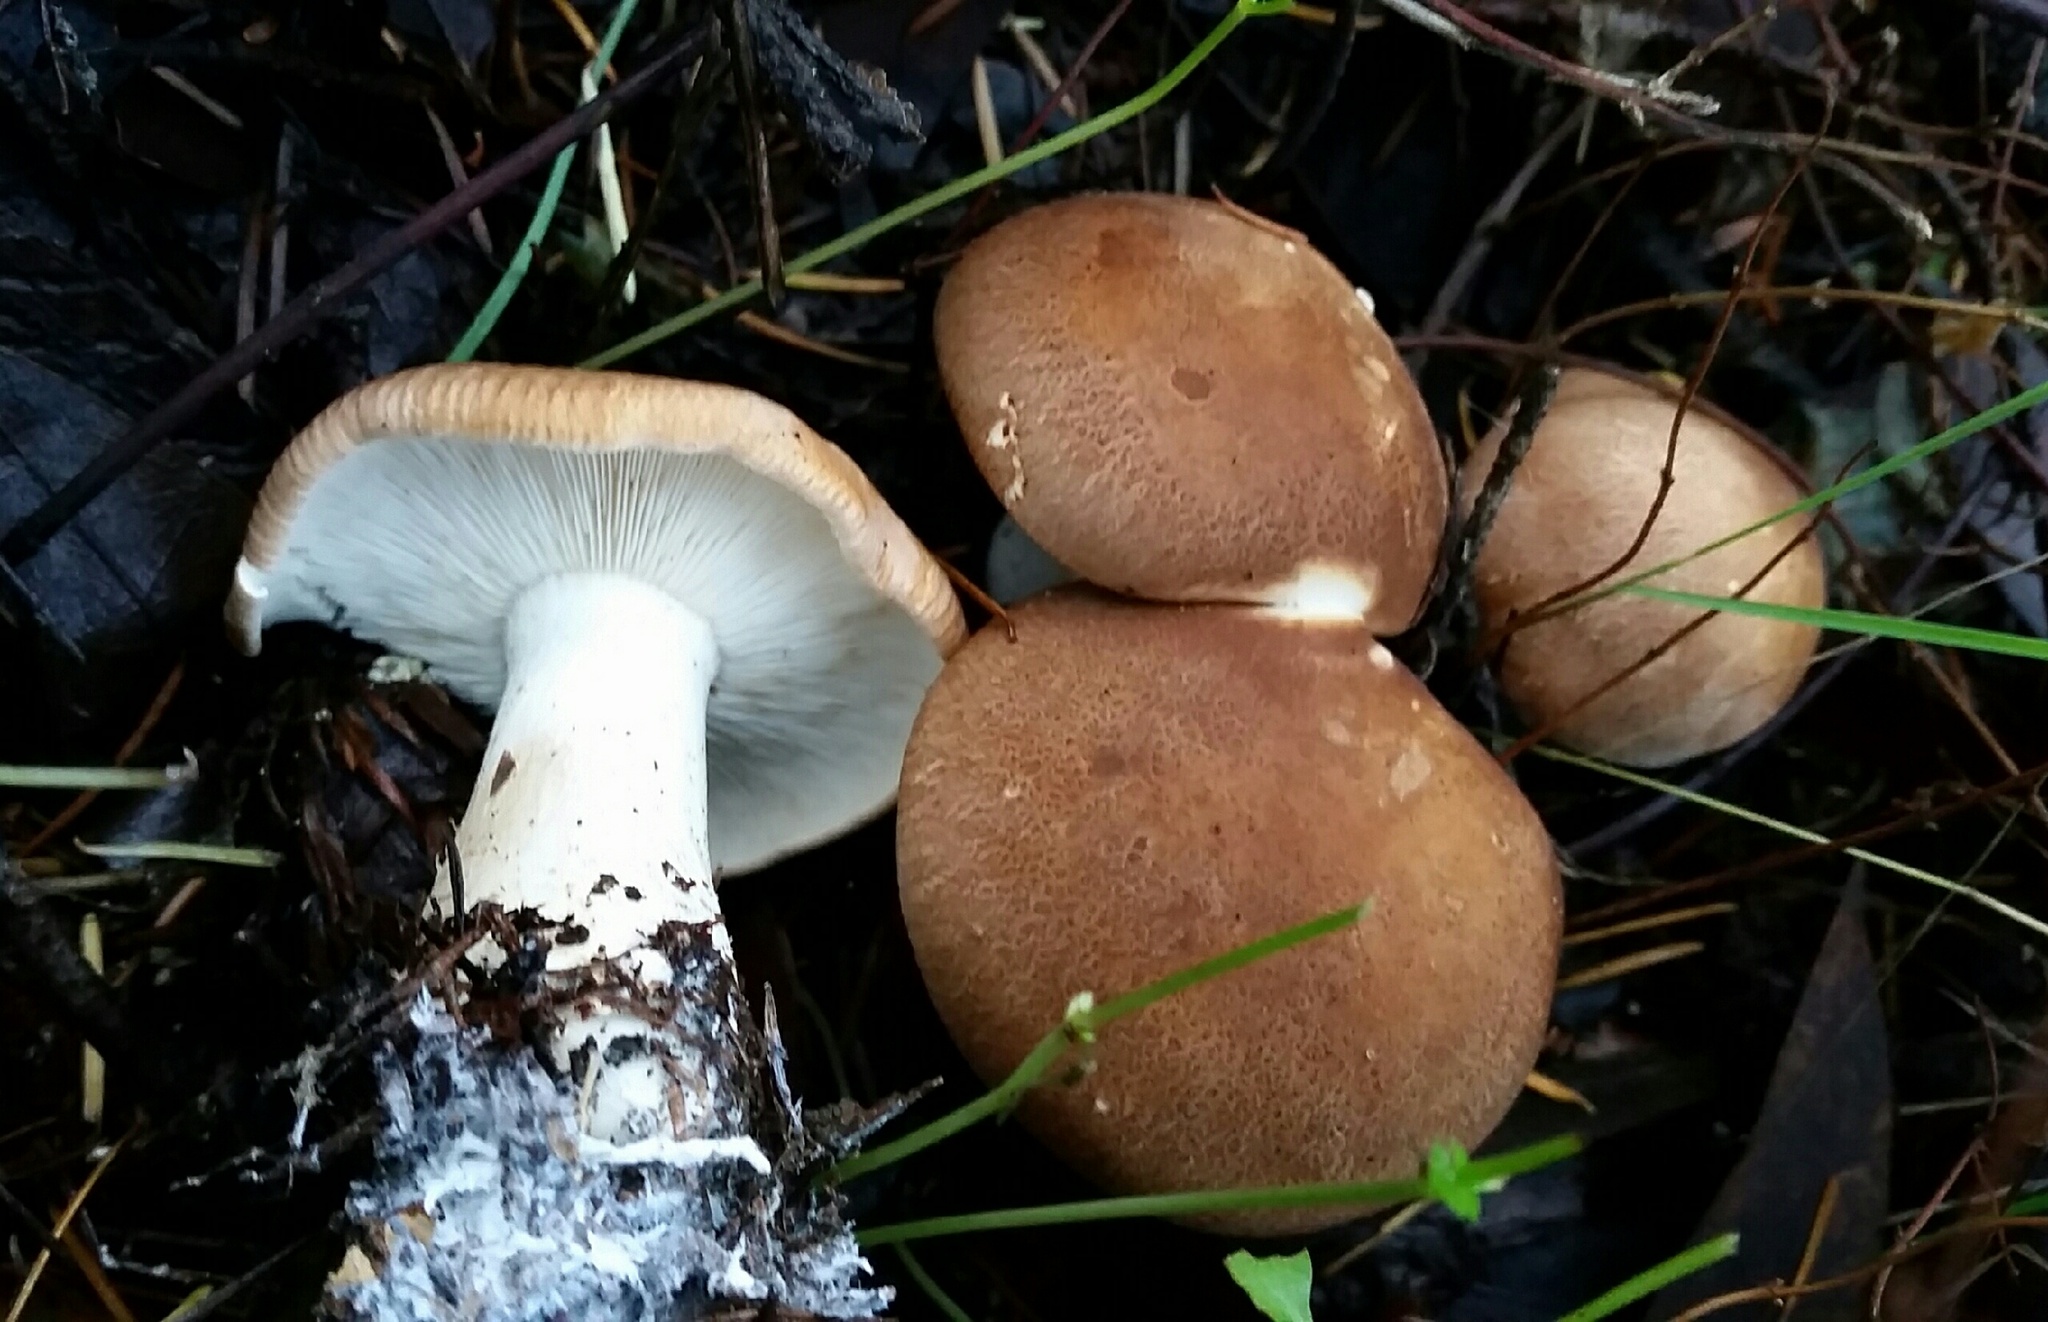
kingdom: Fungi
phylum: Basidiomycota
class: Agaricomycetes
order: Agaricales
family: Tricholomataceae
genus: Leucopaxillus
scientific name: Leucopaxillus gentianeus
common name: Bitter funnel
